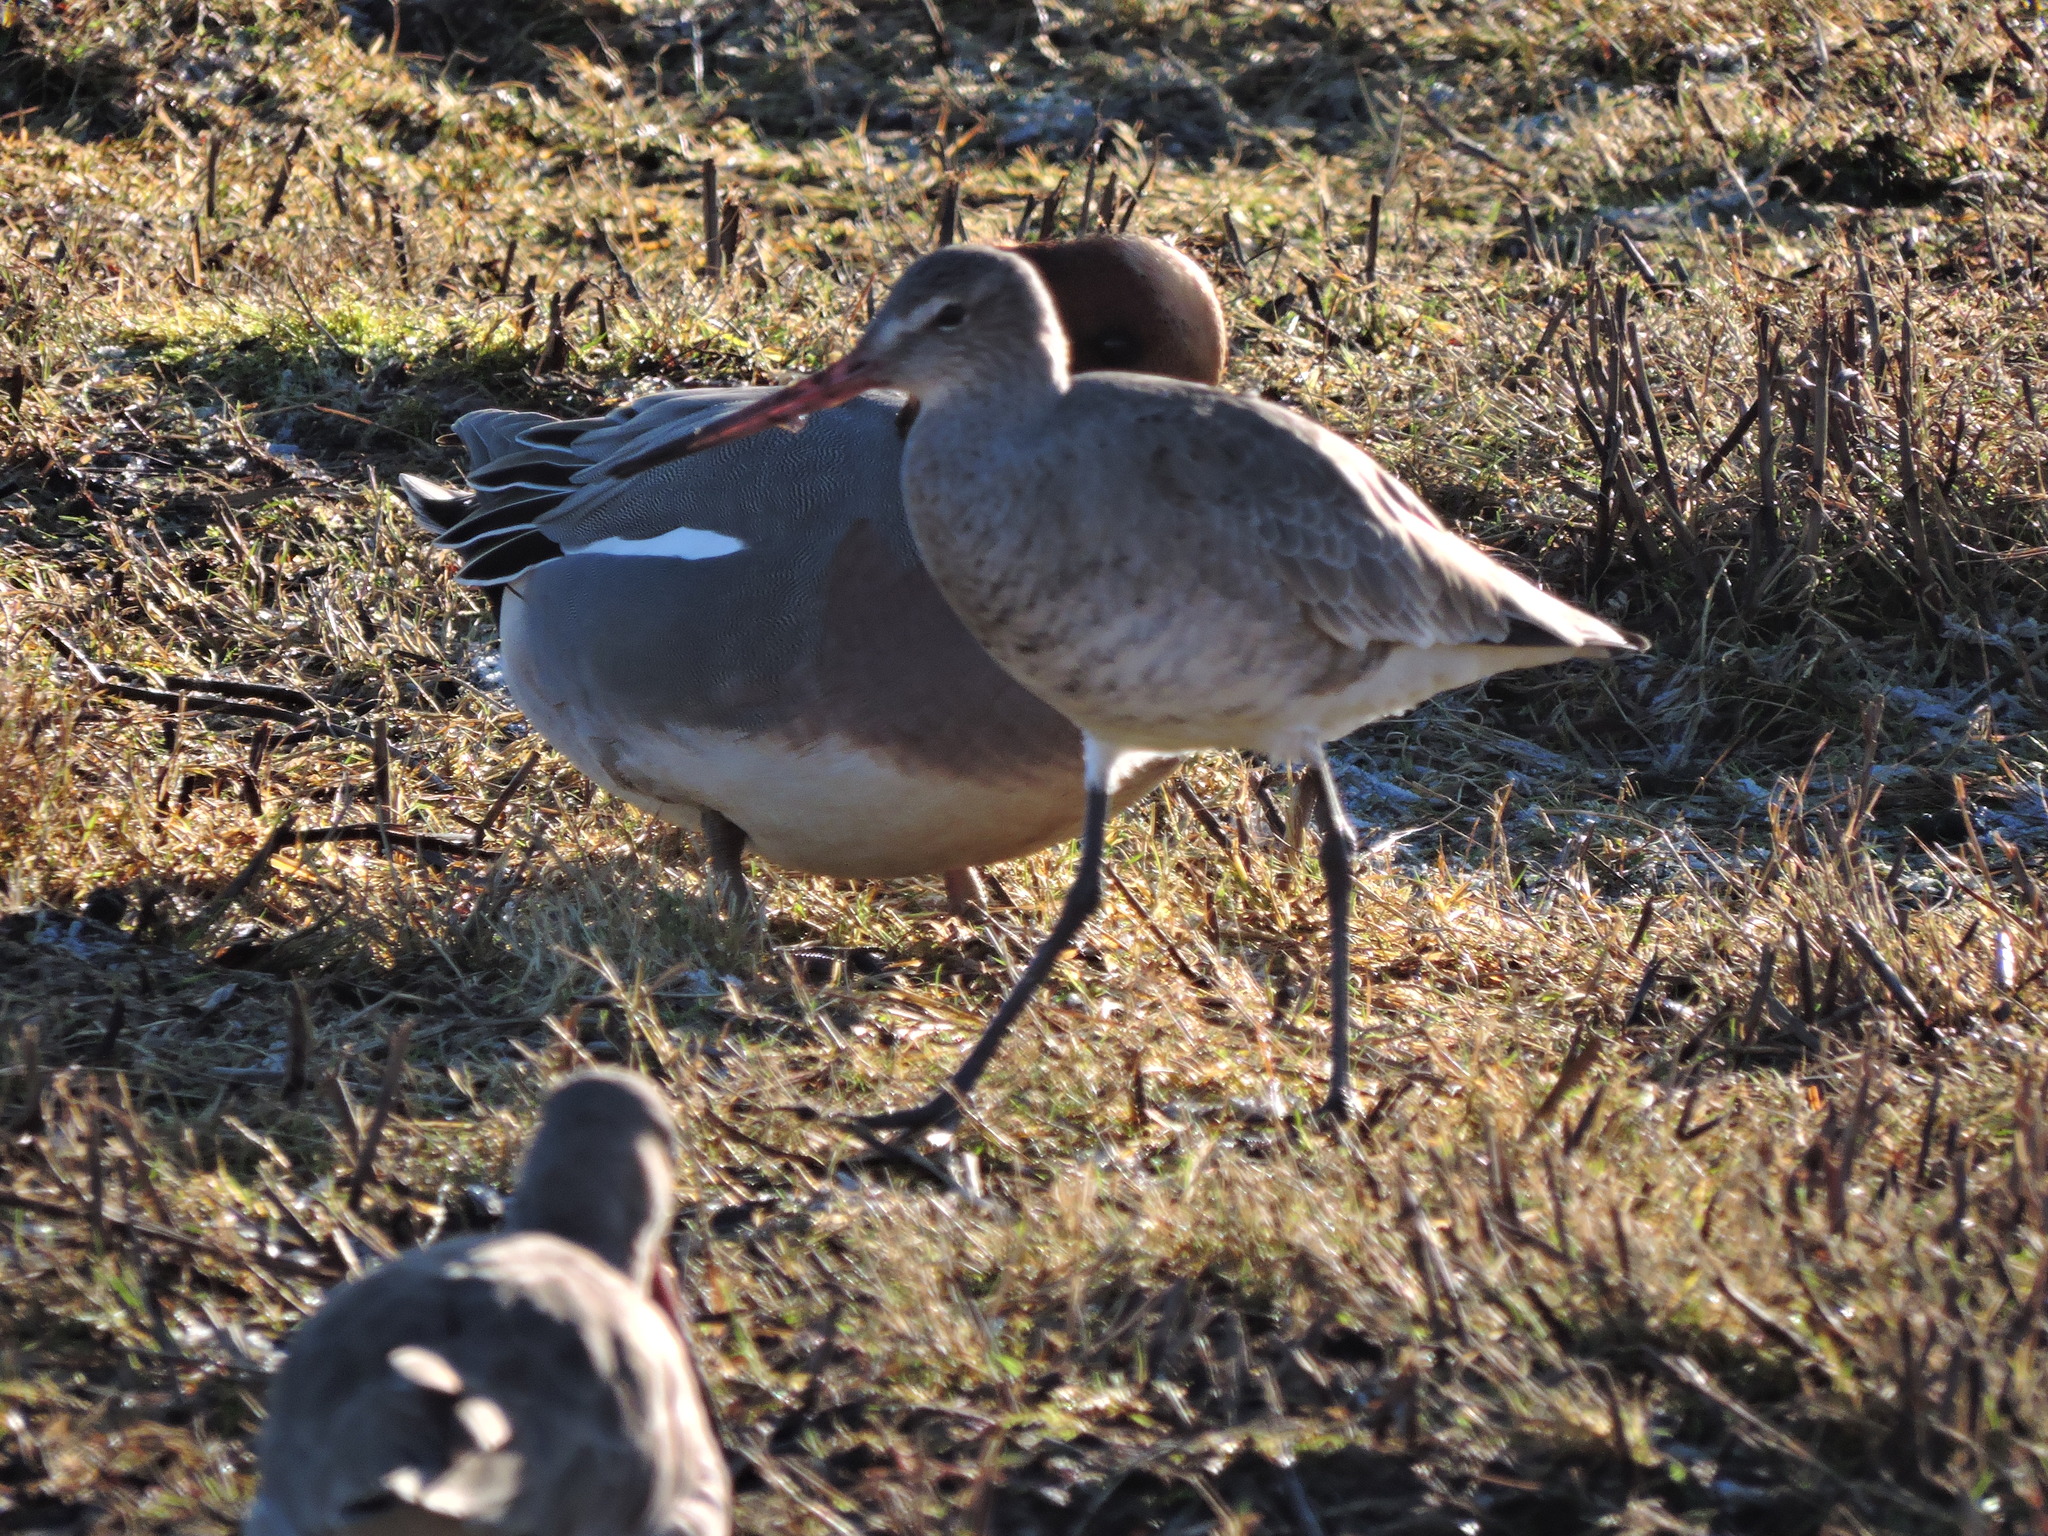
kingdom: Animalia
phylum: Chordata
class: Aves
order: Charadriiformes
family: Scolopacidae
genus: Limosa
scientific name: Limosa limosa
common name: Black-tailed godwit
